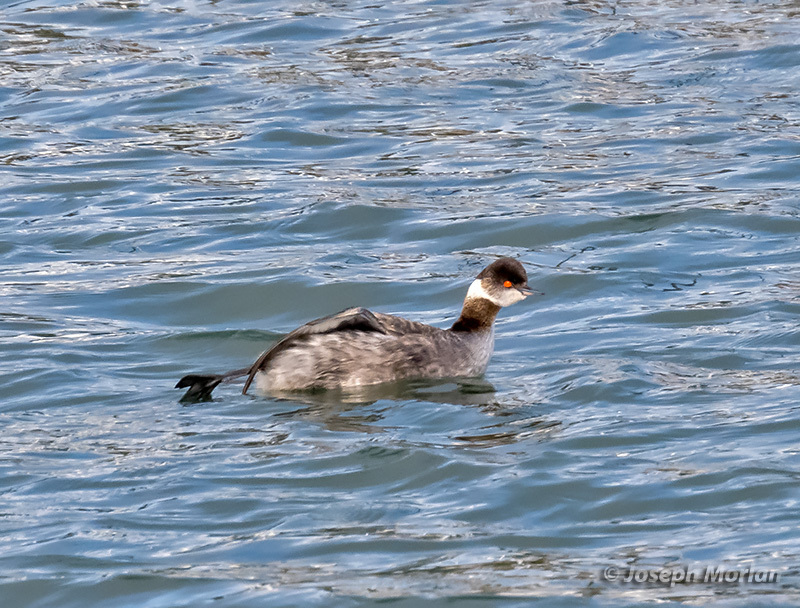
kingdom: Animalia
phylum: Chordata
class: Aves
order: Podicipediformes
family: Podicipedidae
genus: Podiceps
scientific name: Podiceps nigricollis
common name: Black-necked grebe
